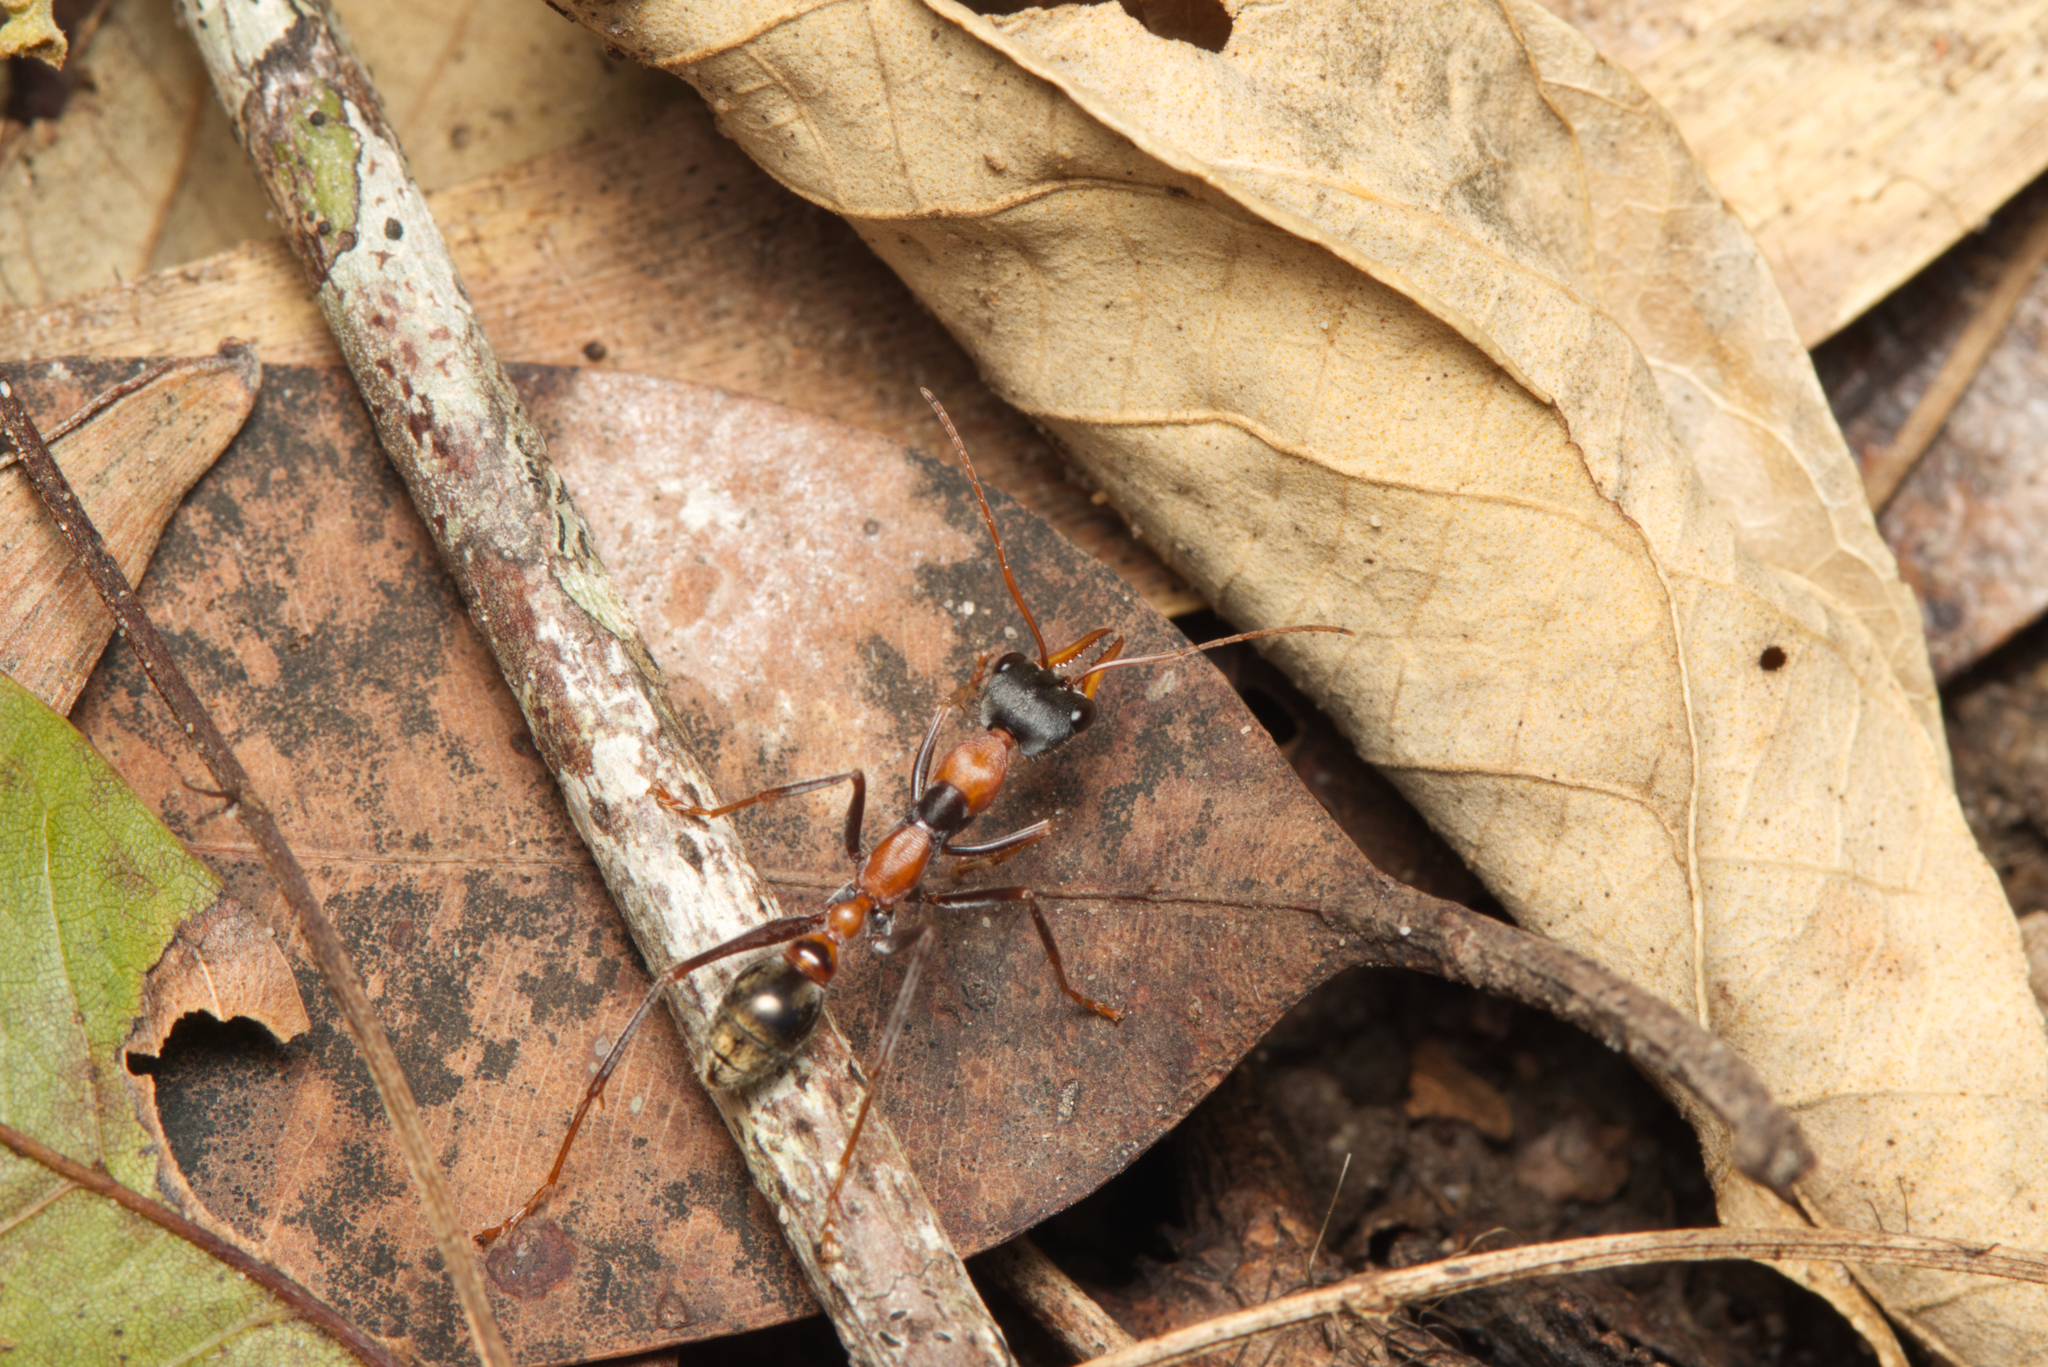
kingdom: Animalia
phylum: Arthropoda
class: Insecta
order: Hymenoptera
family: Formicidae
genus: Myrmecia
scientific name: Myrmecia nigrocincta
